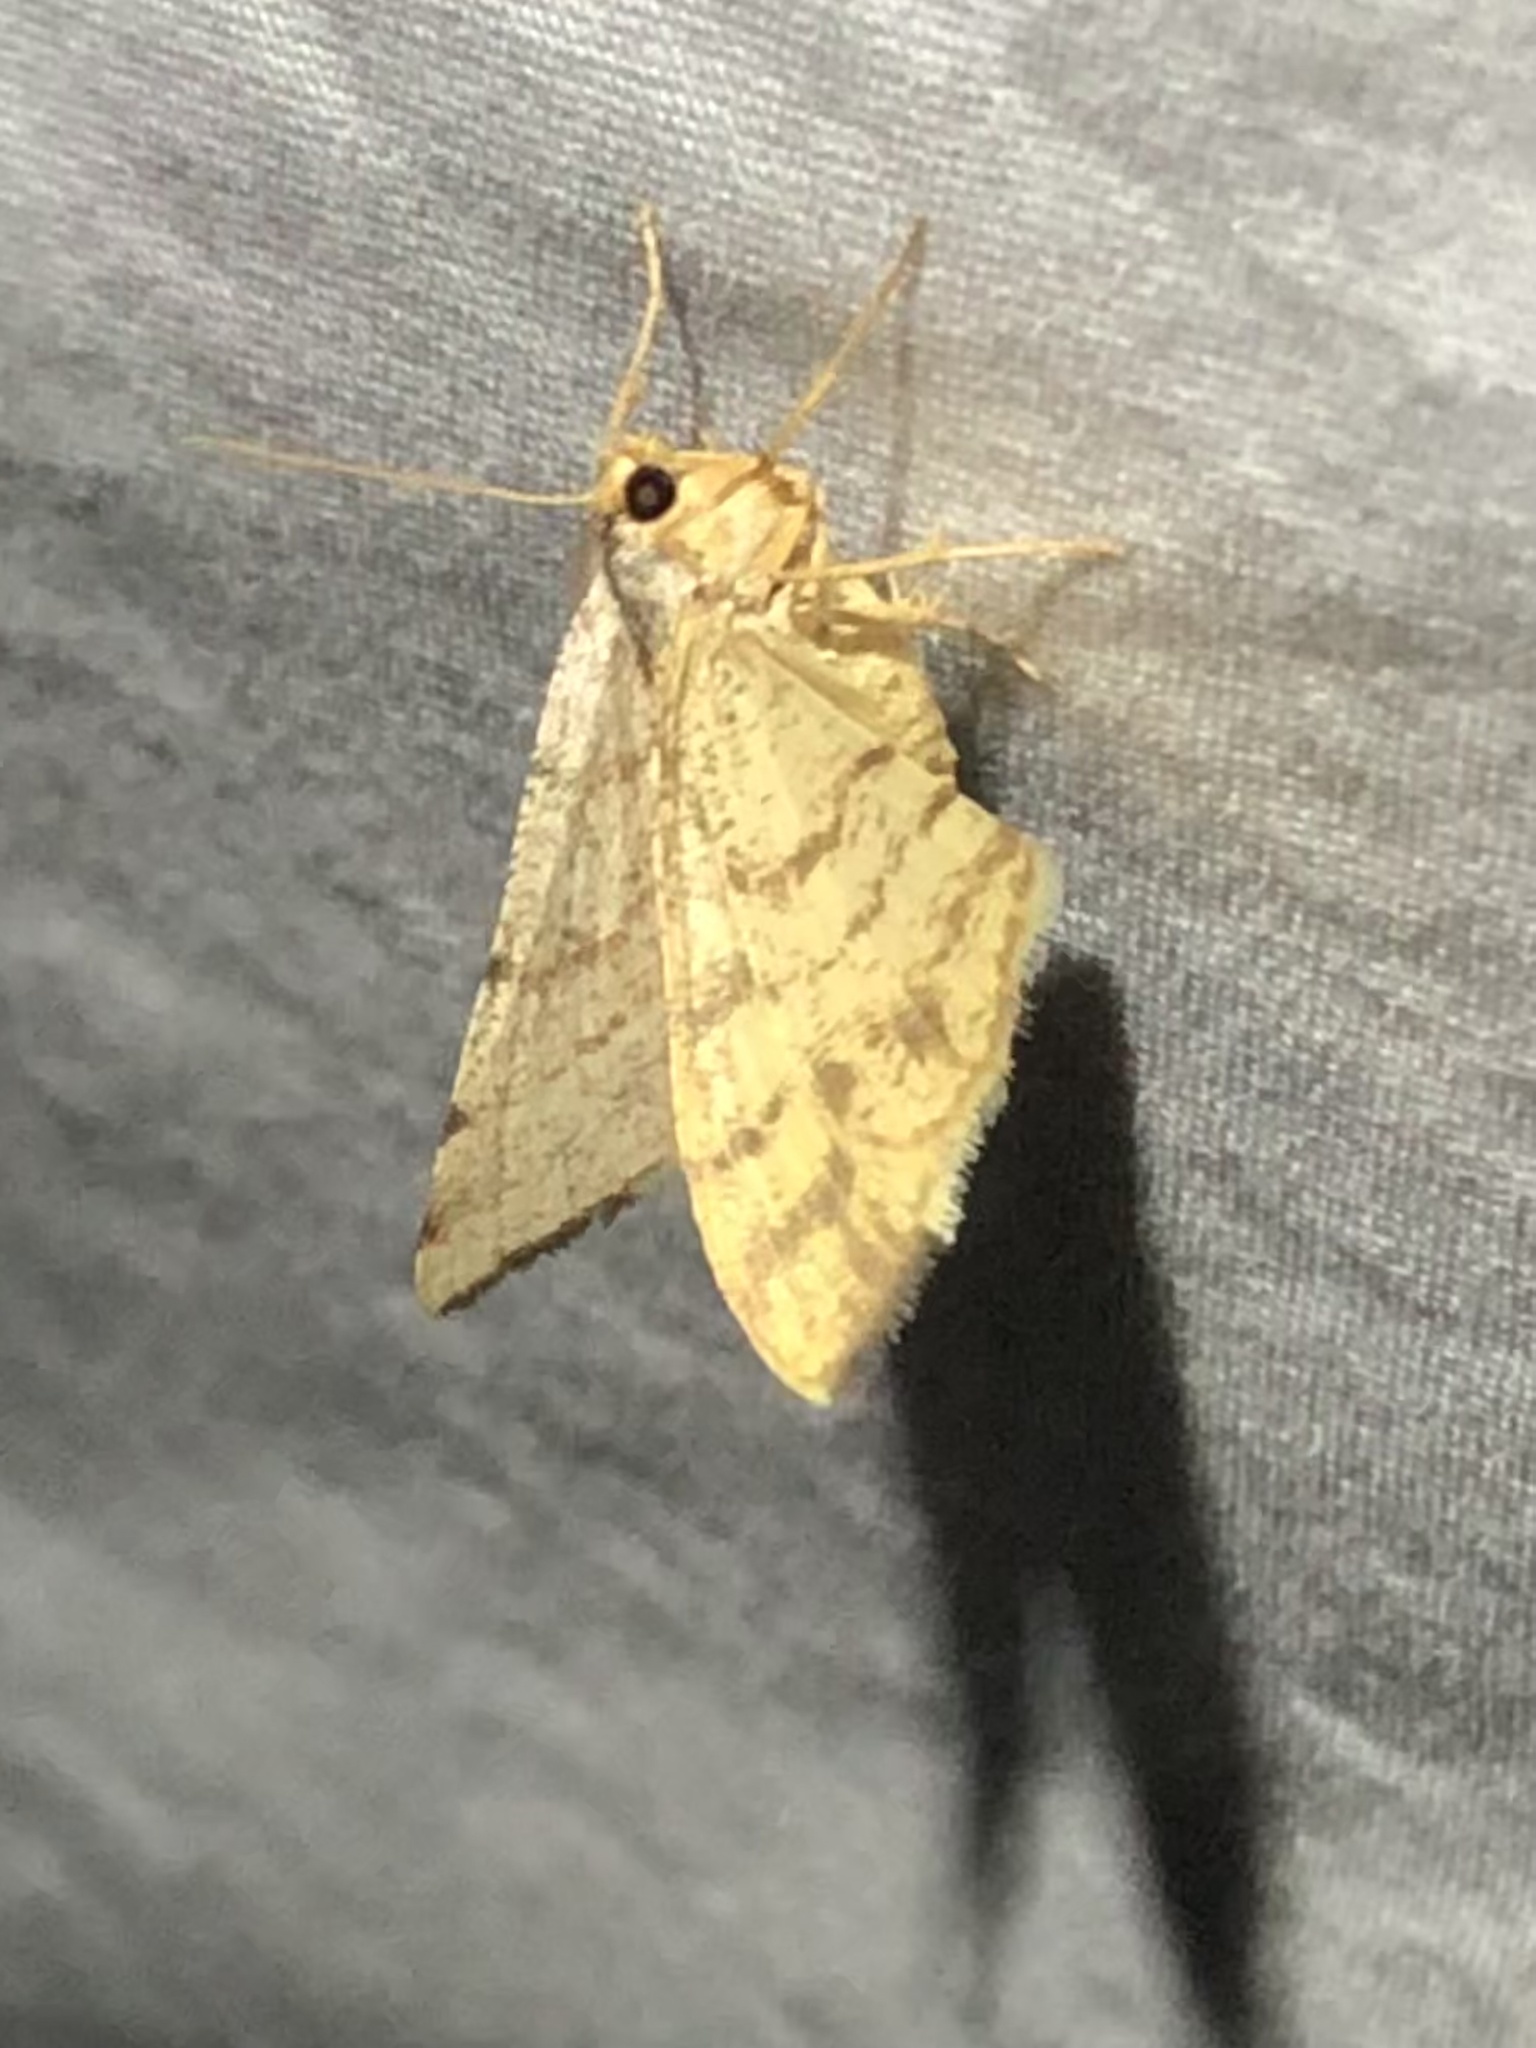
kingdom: Animalia
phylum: Arthropoda
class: Insecta
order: Lepidoptera
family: Geometridae
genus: Macaria
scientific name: Macaria octolineata
